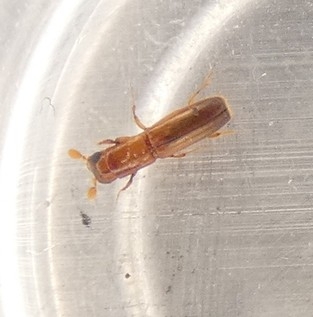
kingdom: Animalia
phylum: Arthropoda
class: Insecta
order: Coleoptera
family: Curculionidae
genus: Euplatypus
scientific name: Euplatypus compositus
